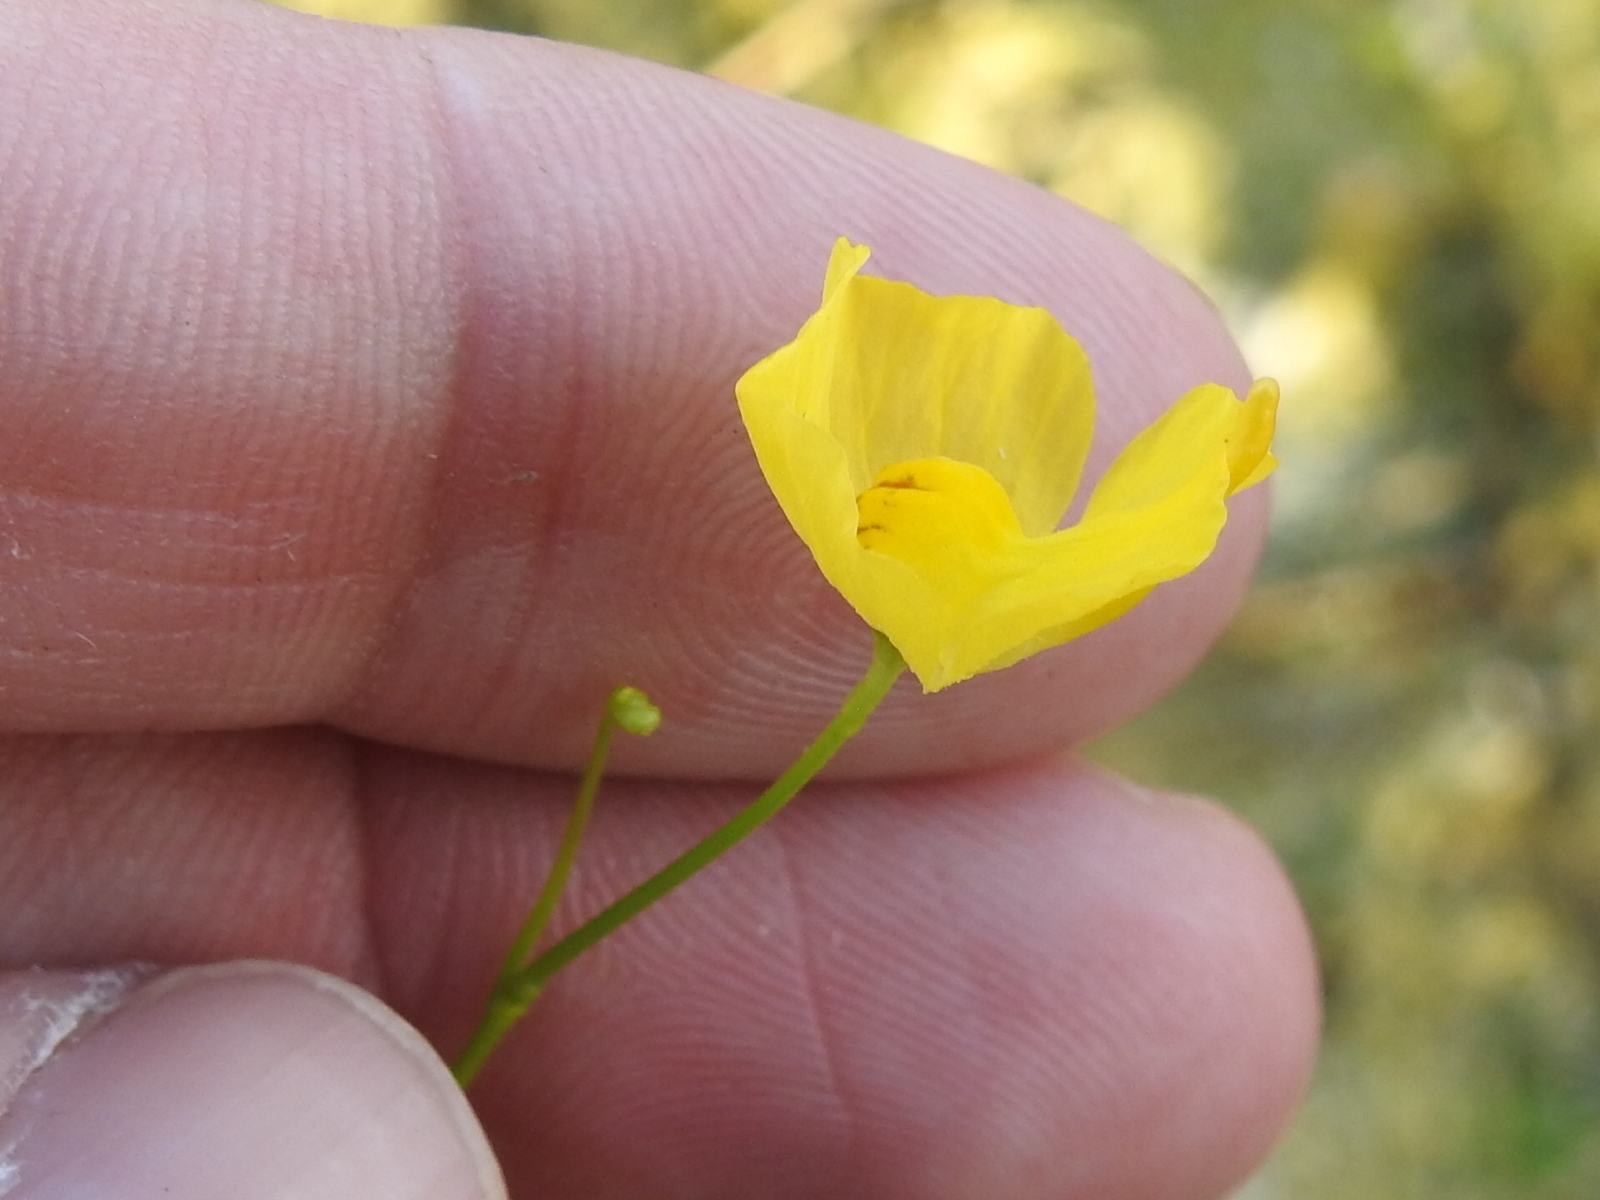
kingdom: Plantae
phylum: Tracheophyta
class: Magnoliopsida
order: Lamiales
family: Lentibulariaceae
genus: Utricularia
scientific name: Utricularia gibba
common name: Humped bladderwort
